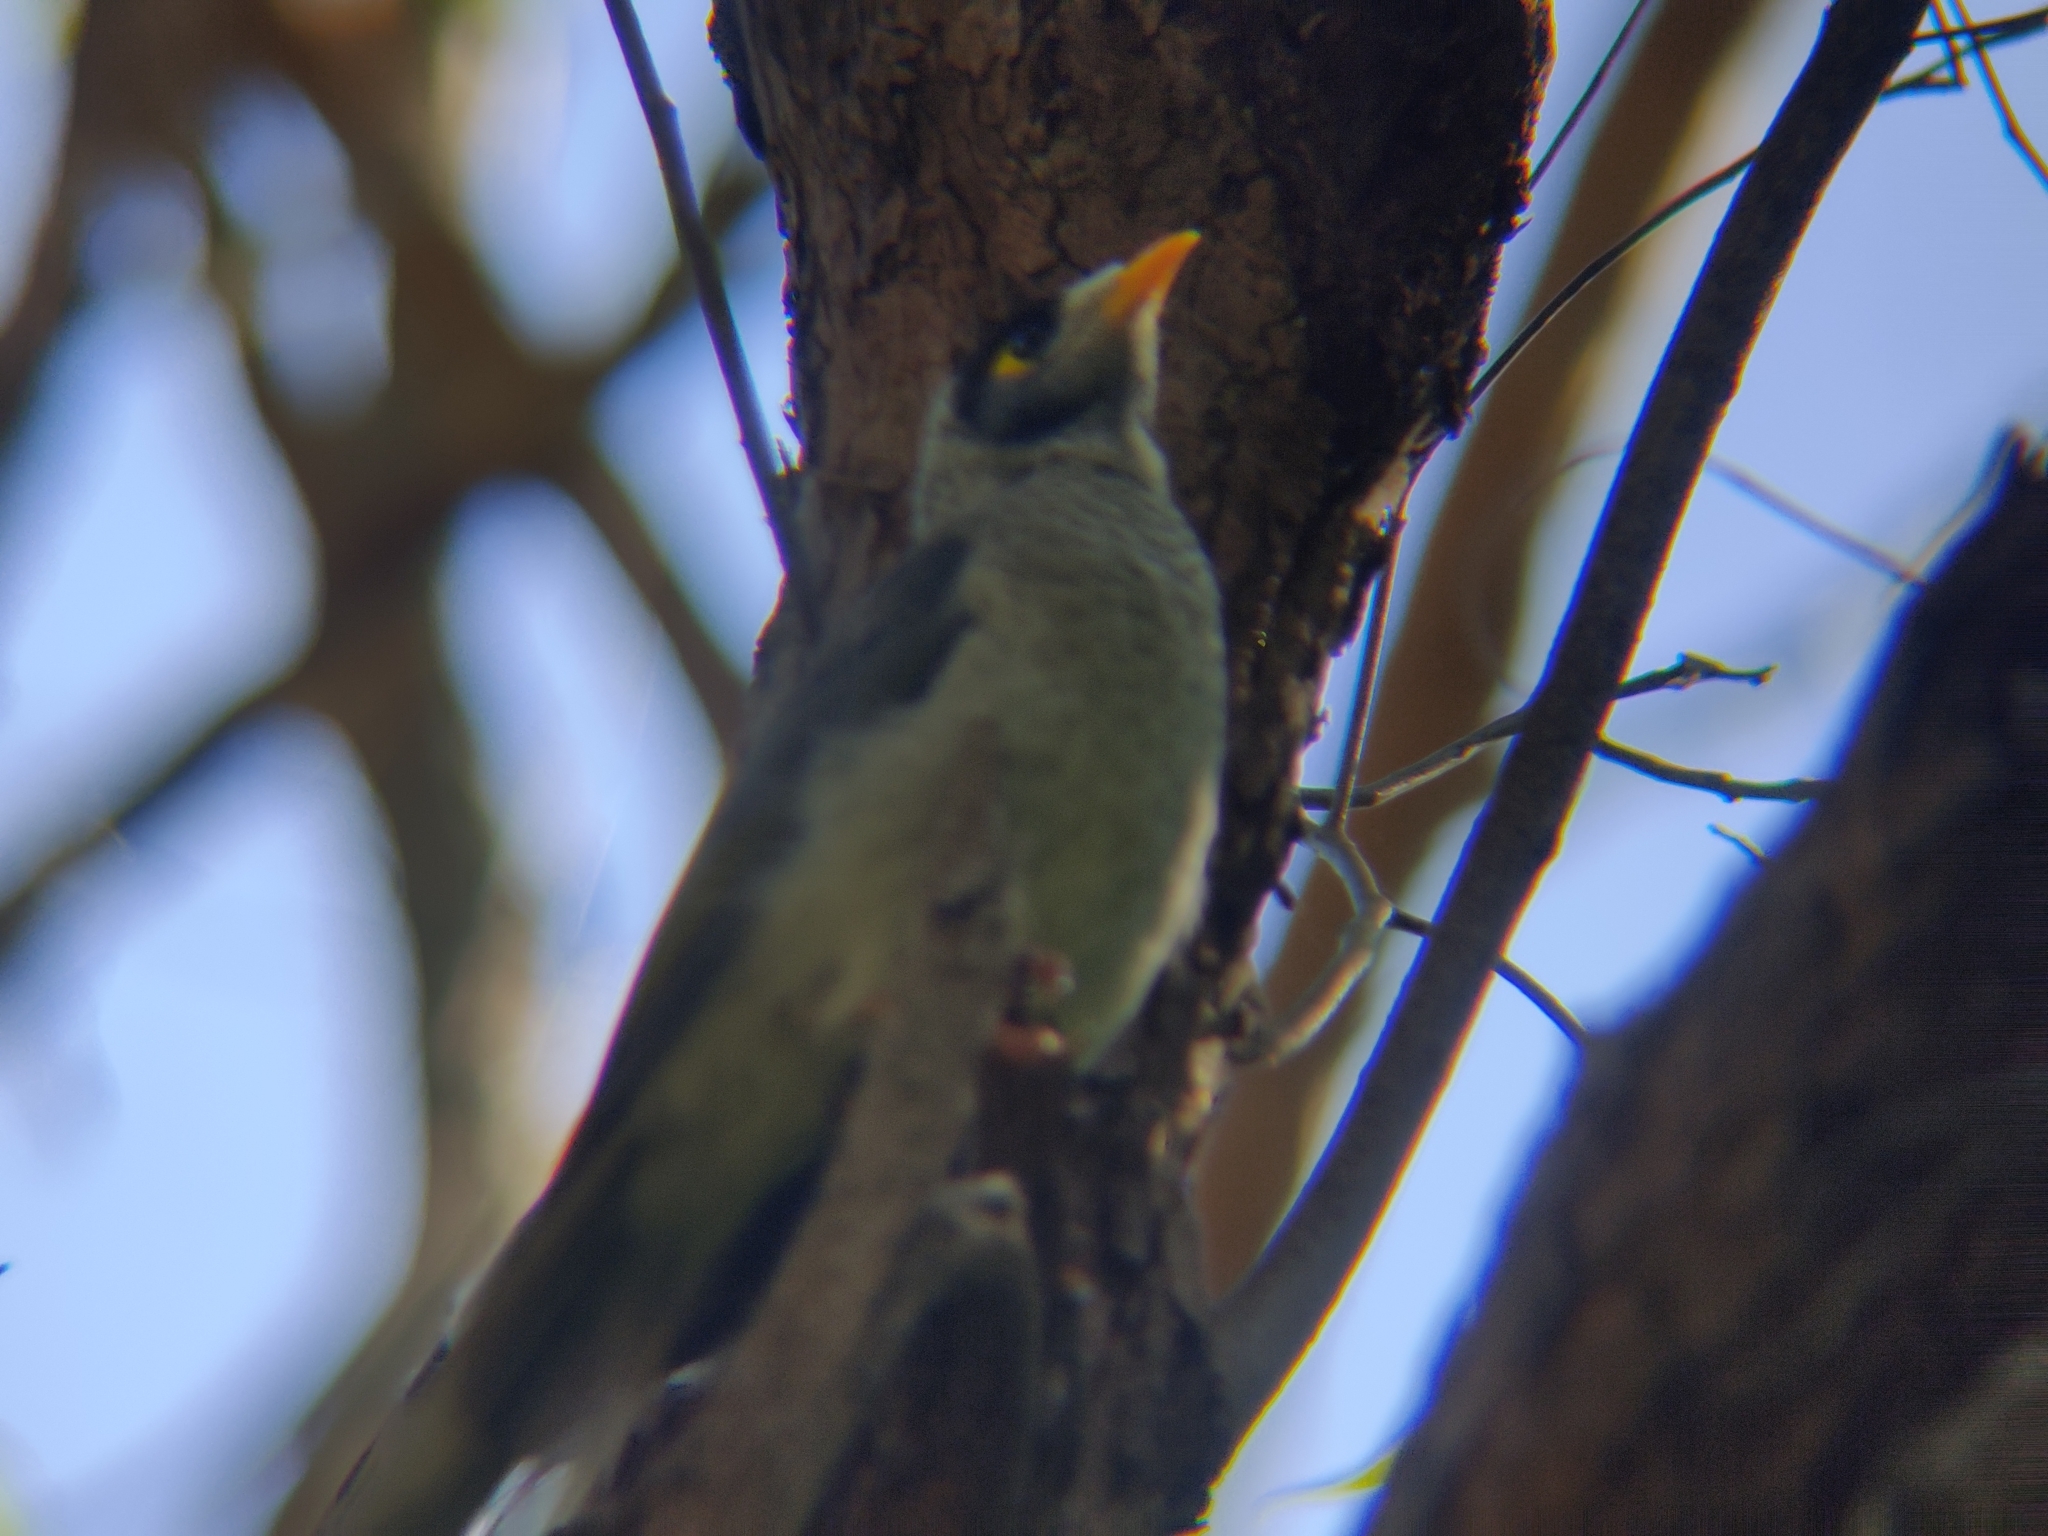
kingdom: Animalia
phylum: Chordata
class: Aves
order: Passeriformes
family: Meliphagidae
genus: Manorina
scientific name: Manorina melanocephala
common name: Noisy miner
